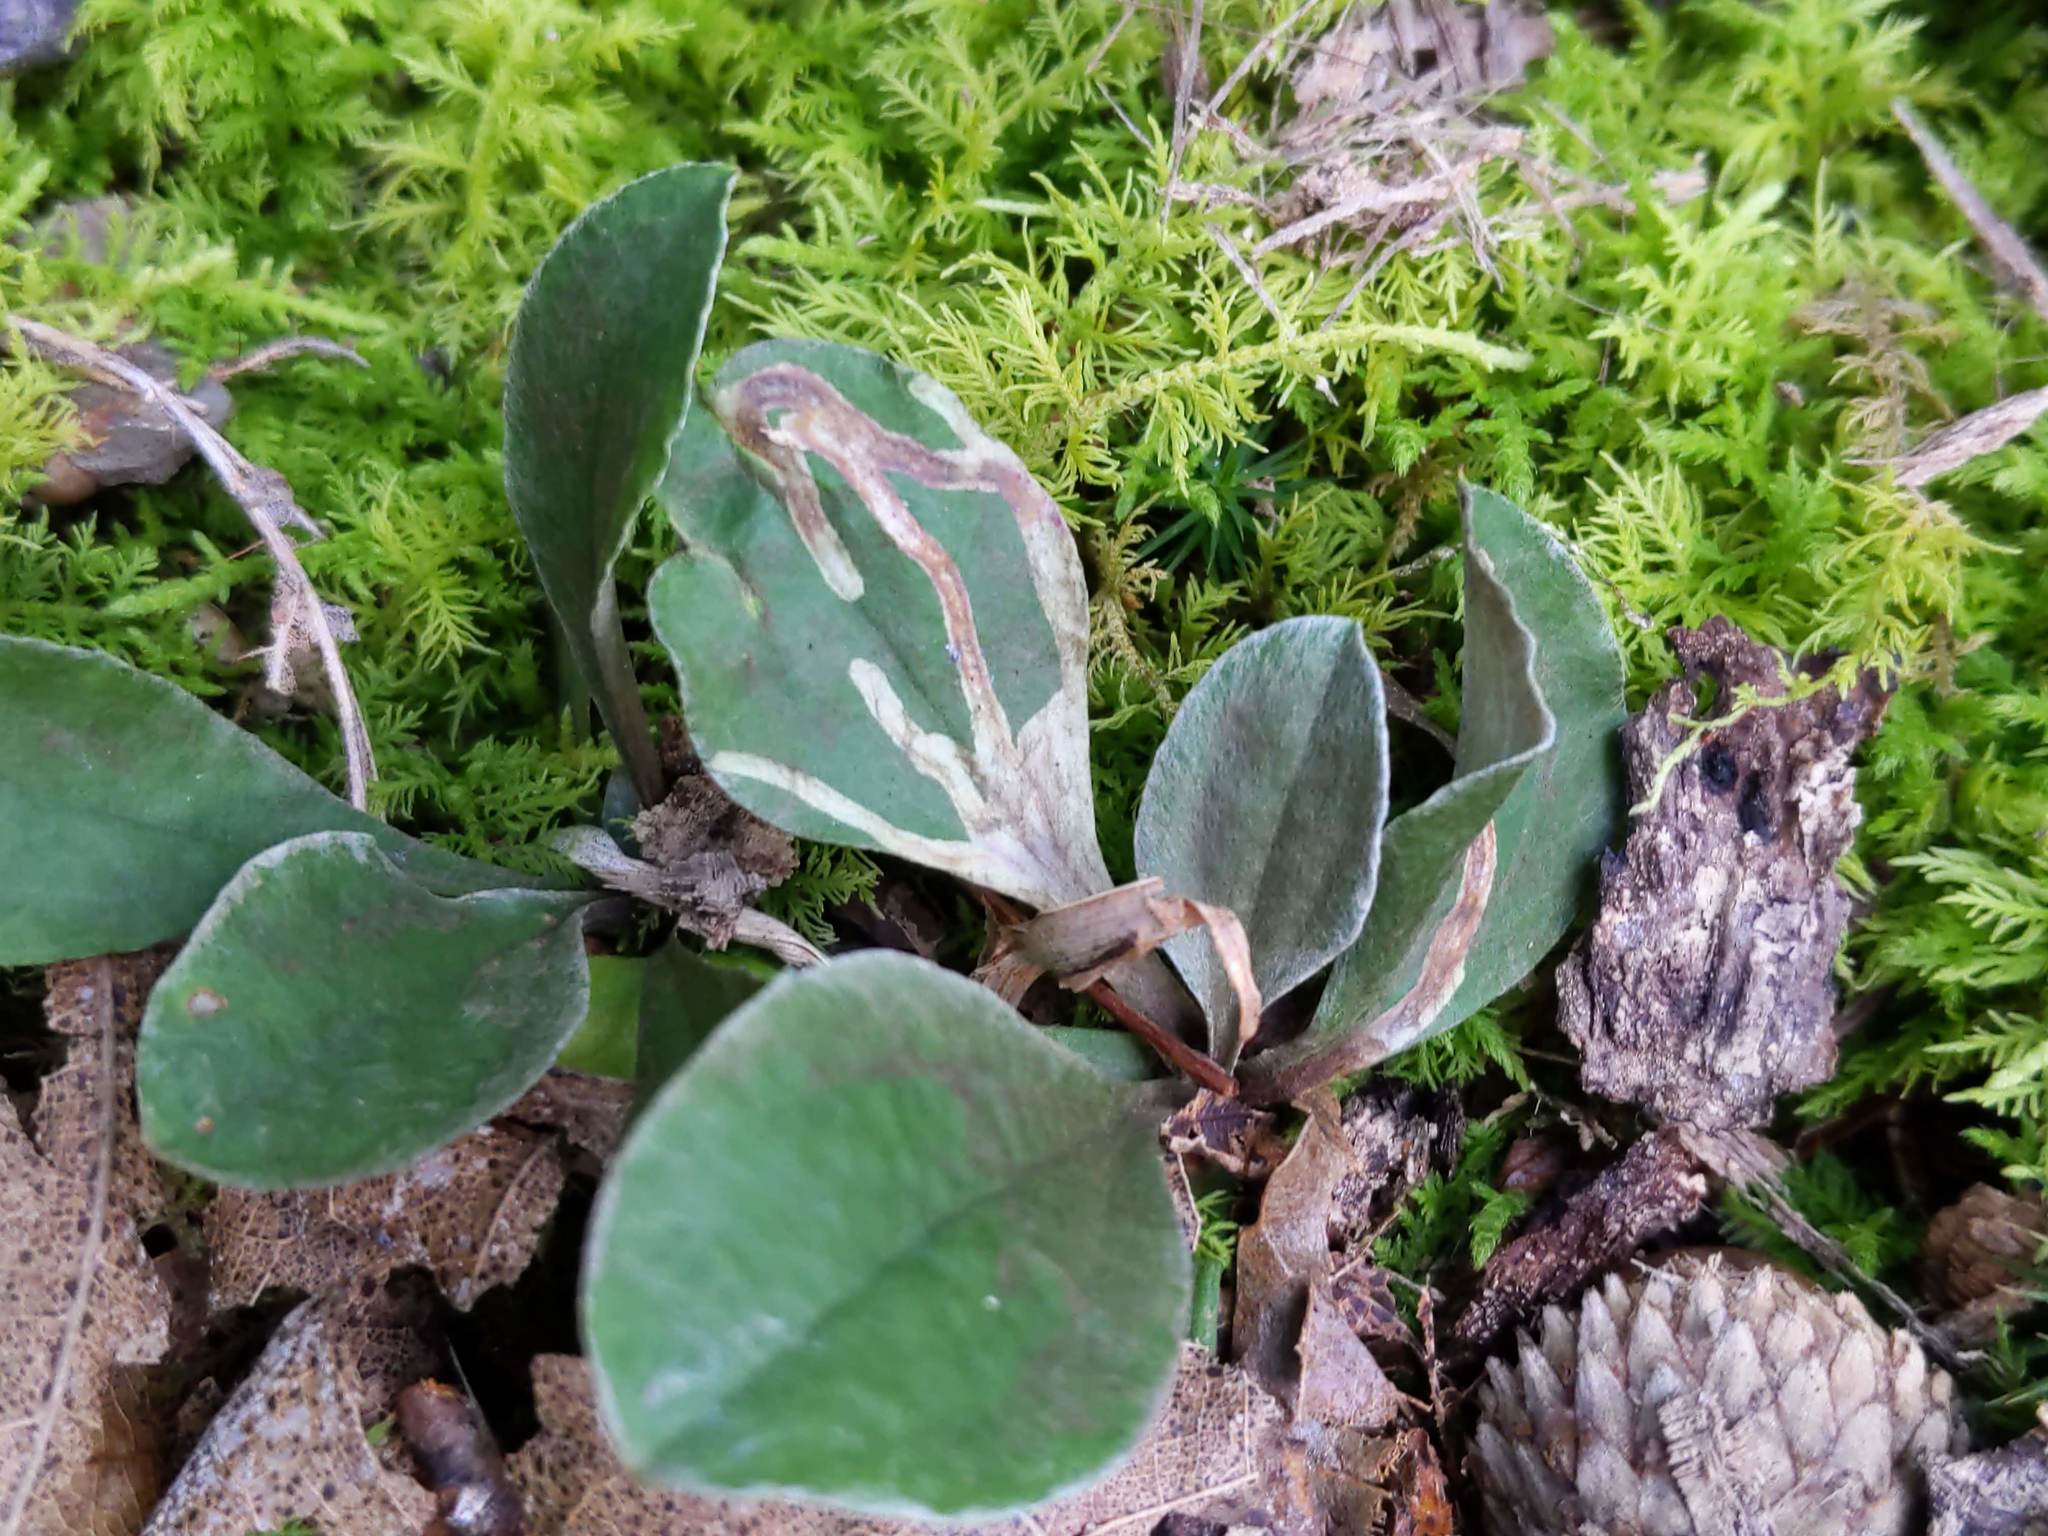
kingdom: Animalia
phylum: Arthropoda
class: Insecta
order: Diptera
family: Agromyzidae
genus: Ophiomyia
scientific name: Ophiomyia coniceps
